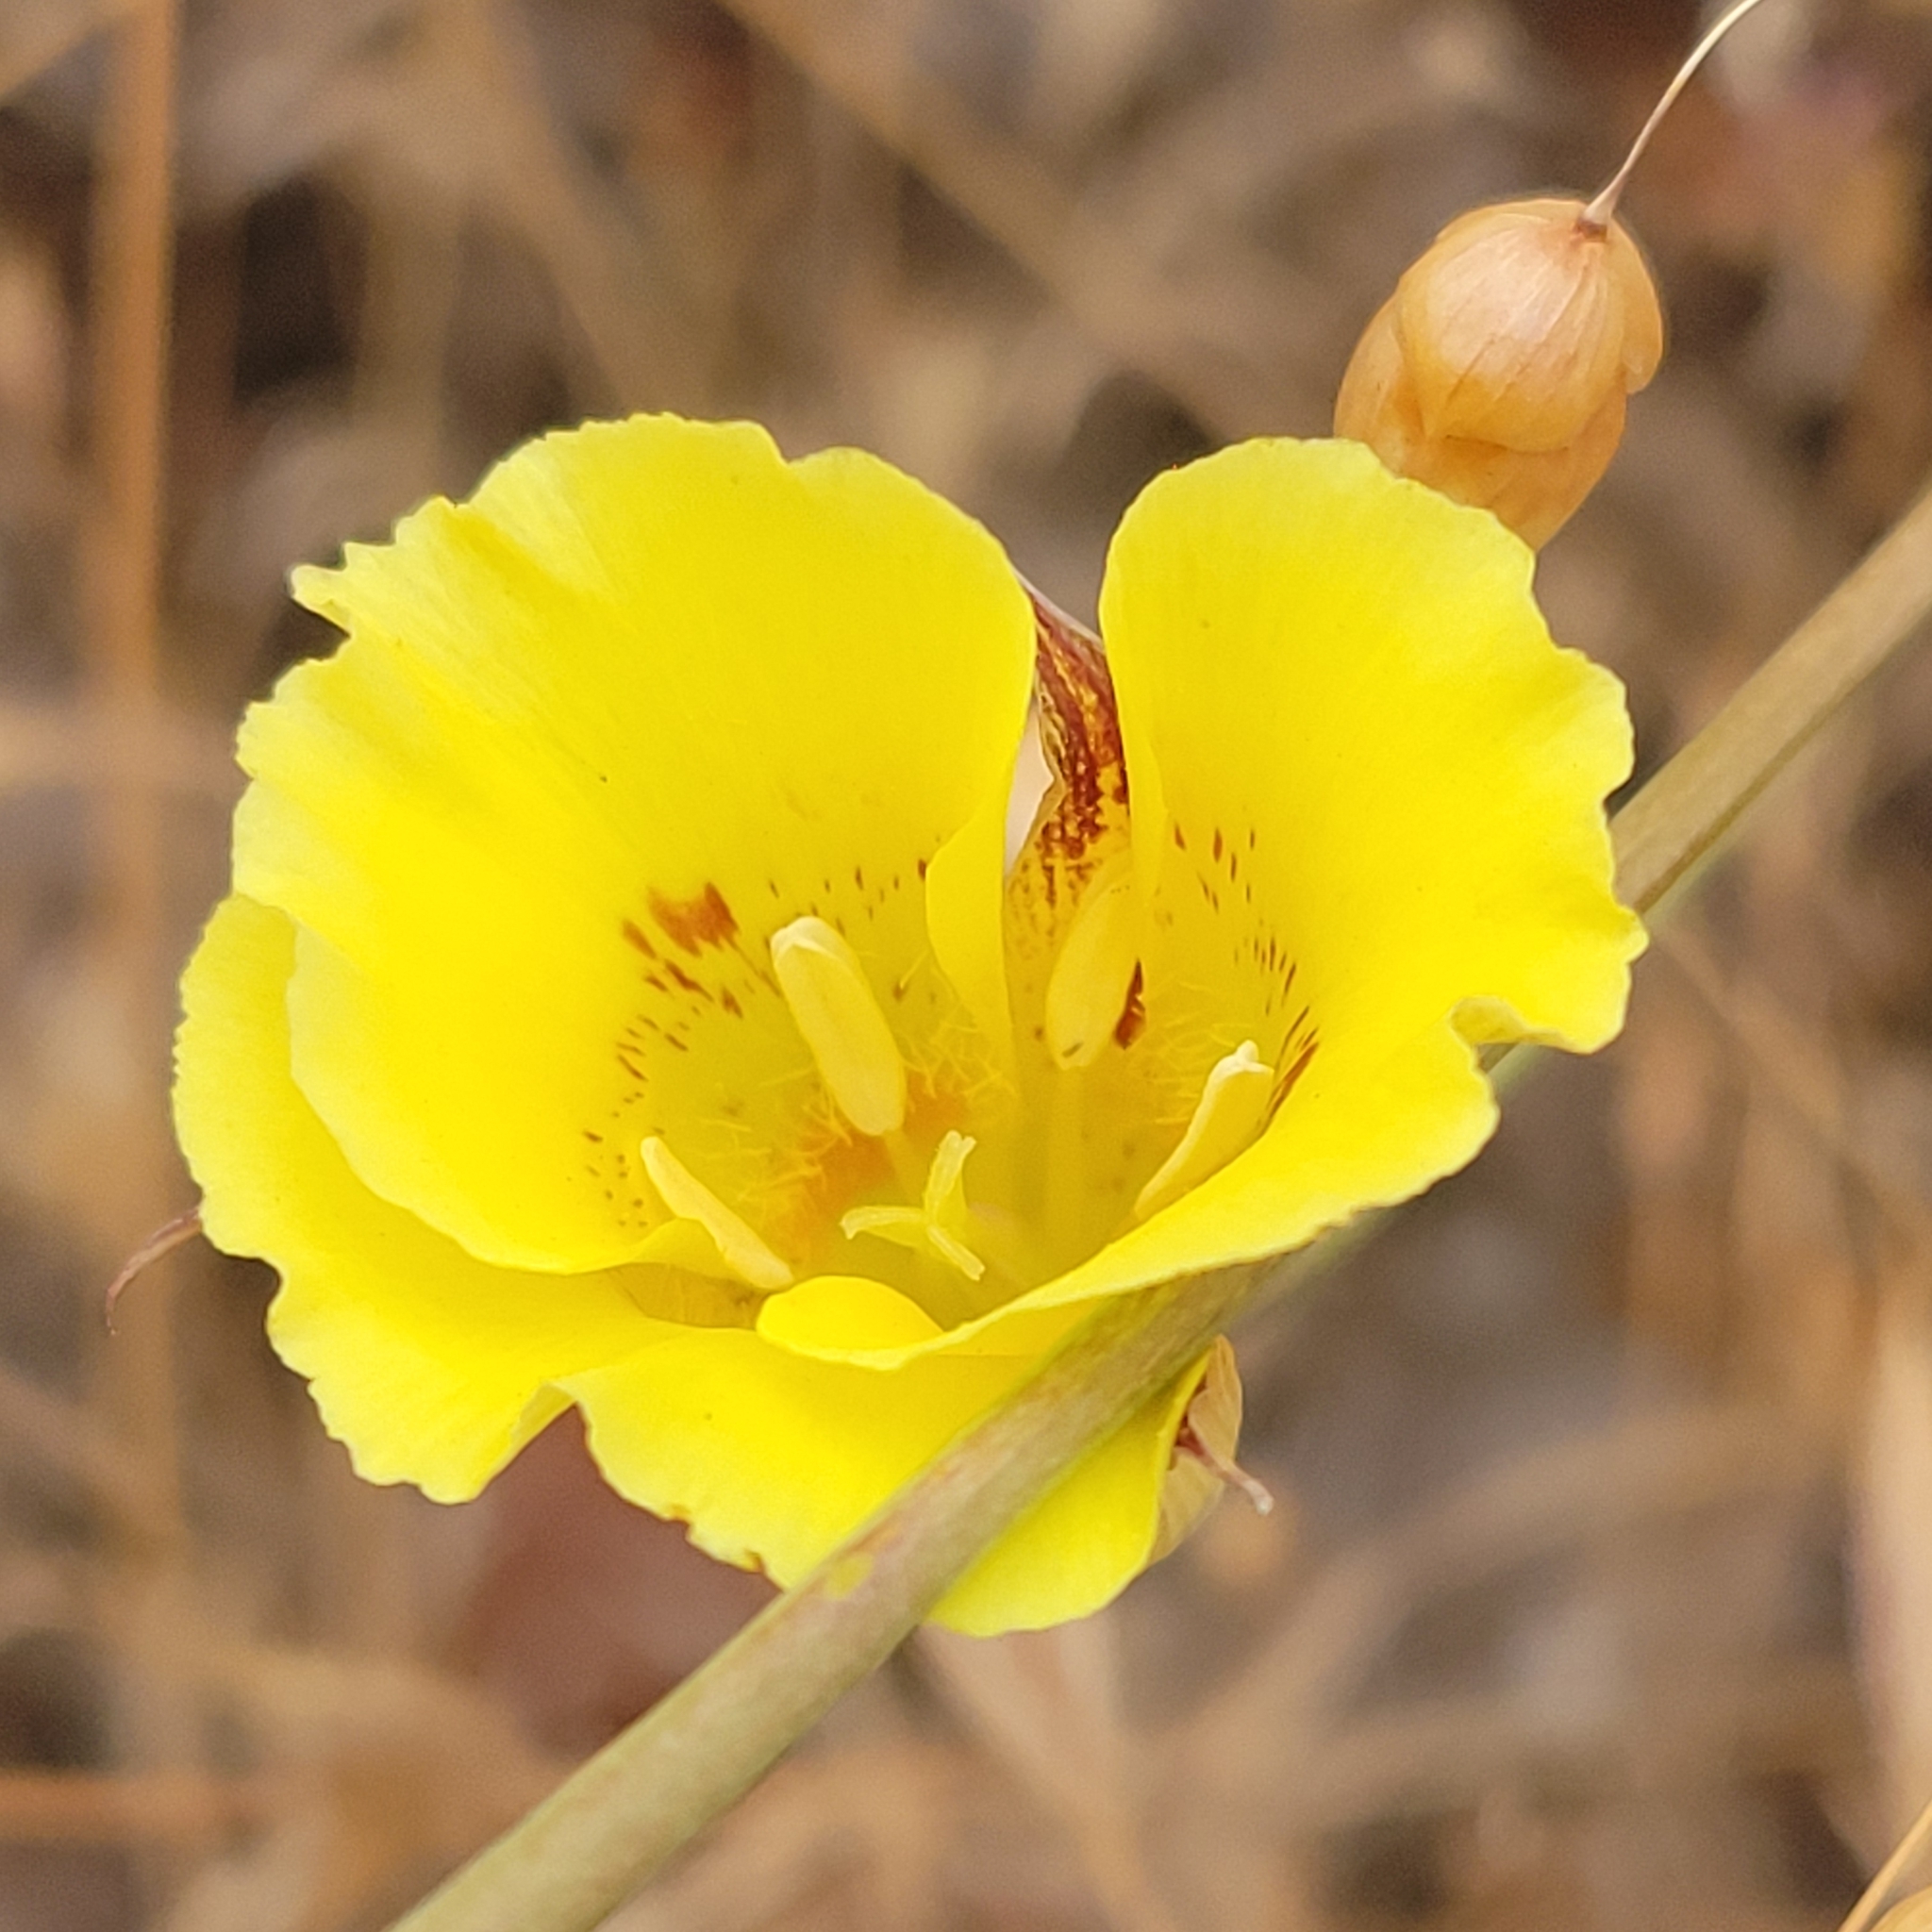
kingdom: Plantae
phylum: Tracheophyta
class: Liliopsida
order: Liliales
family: Liliaceae
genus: Calochortus
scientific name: Calochortus luteus
